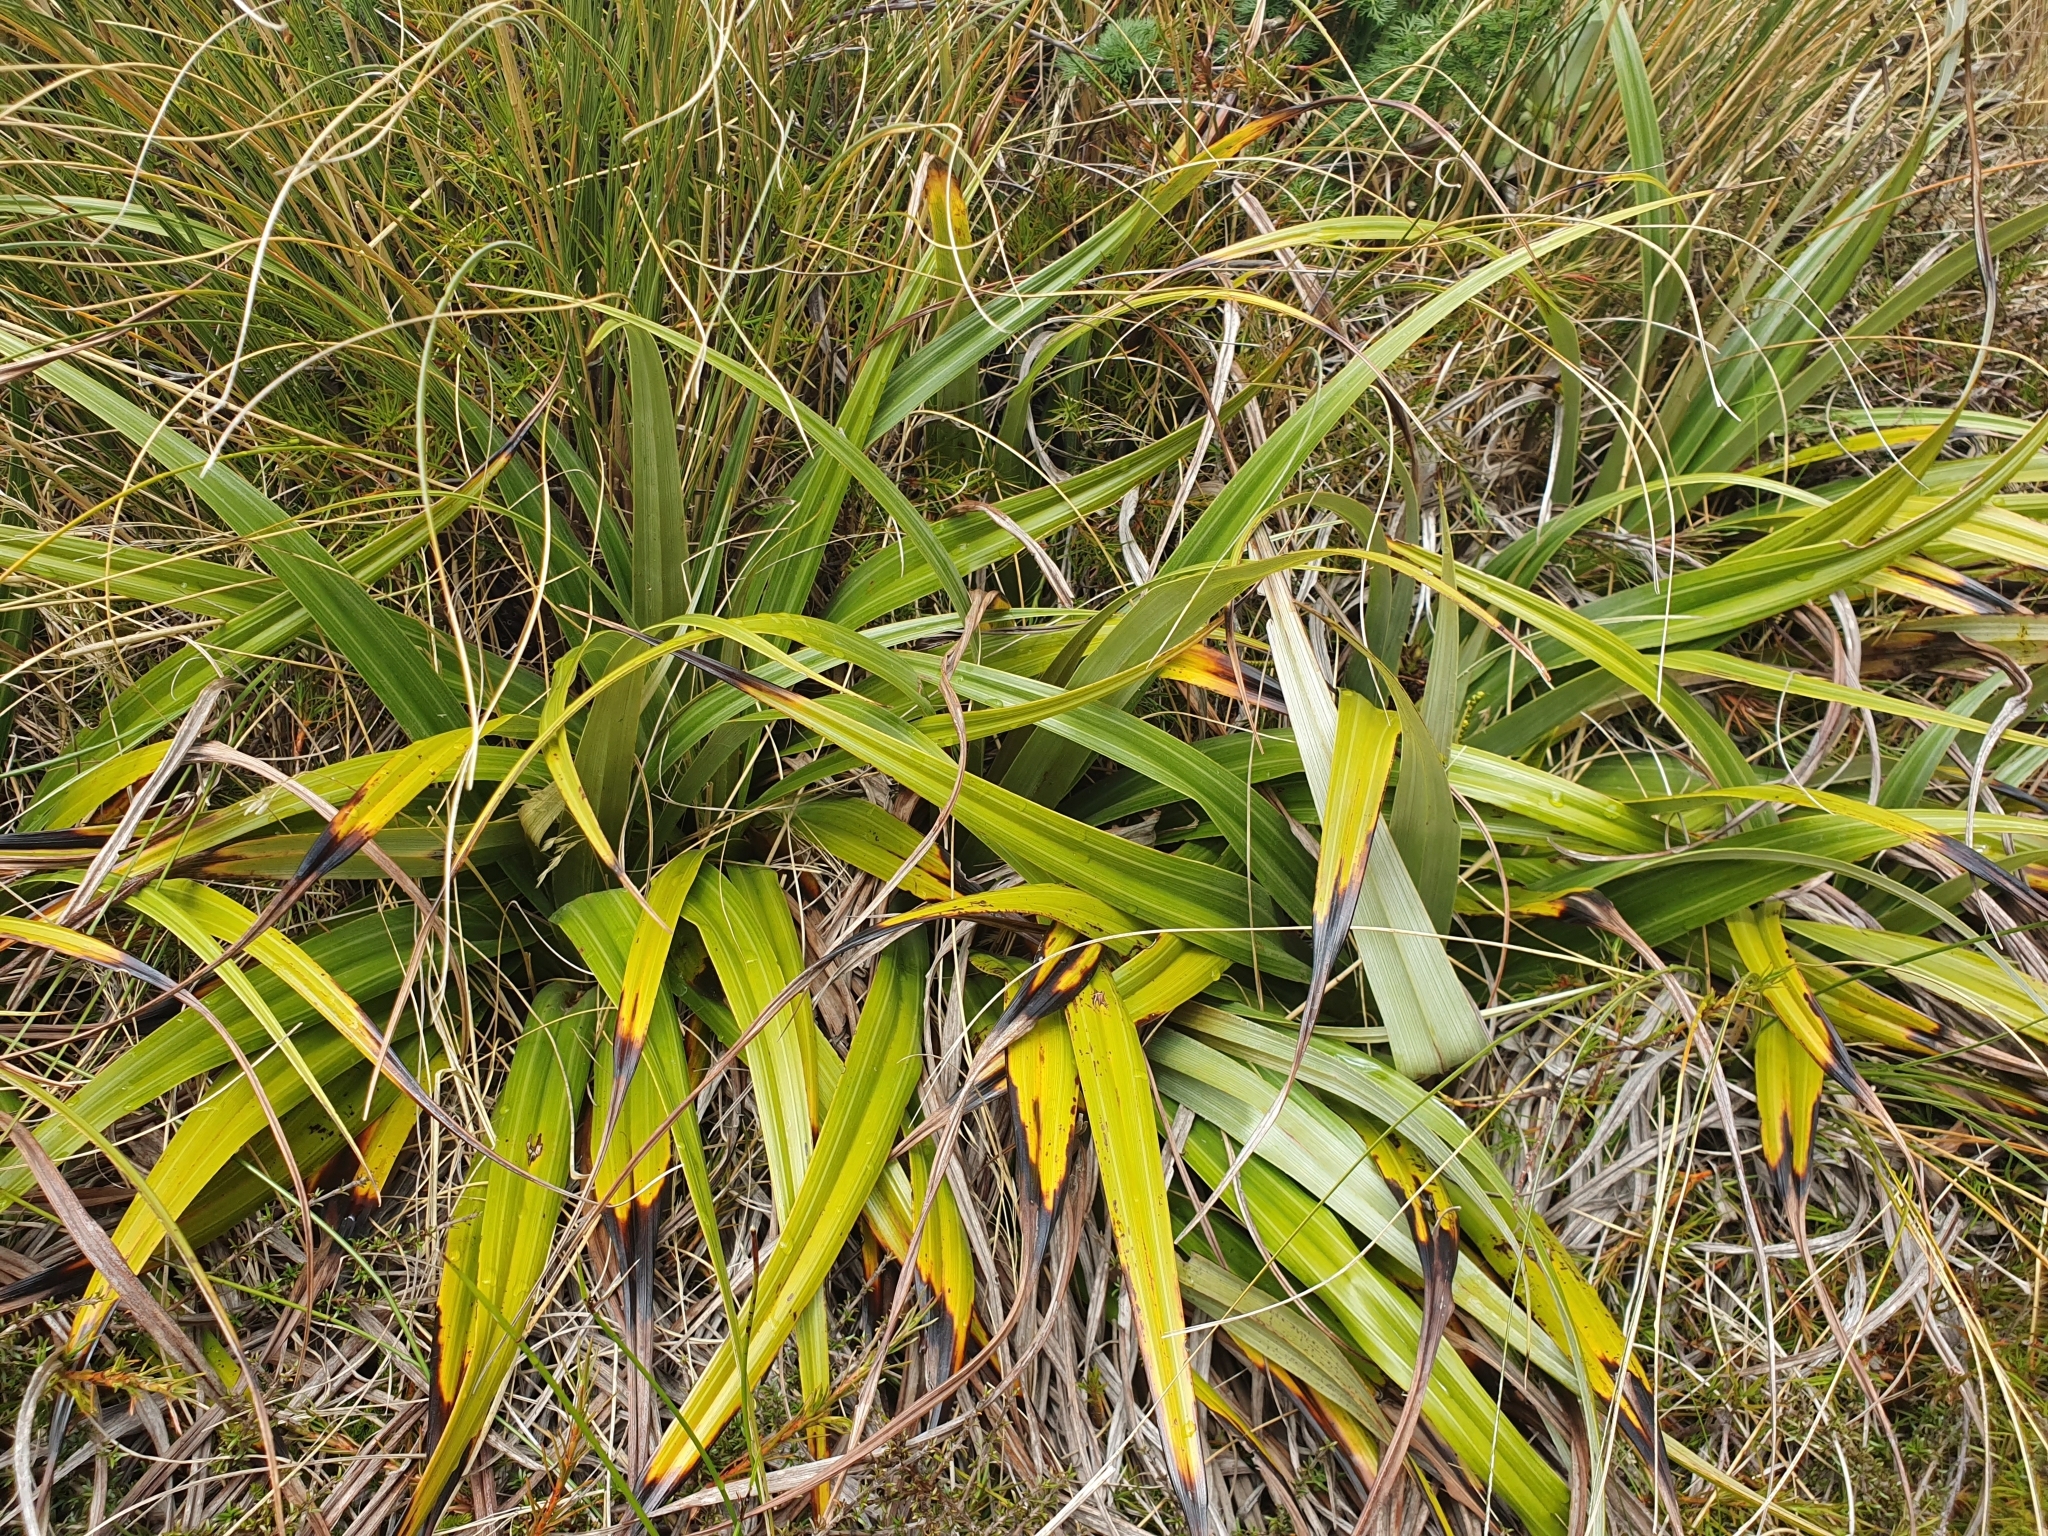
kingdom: Plantae
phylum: Tracheophyta
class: Liliopsida
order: Asparagales
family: Asteliaceae
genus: Astelia
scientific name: Astelia petriei
